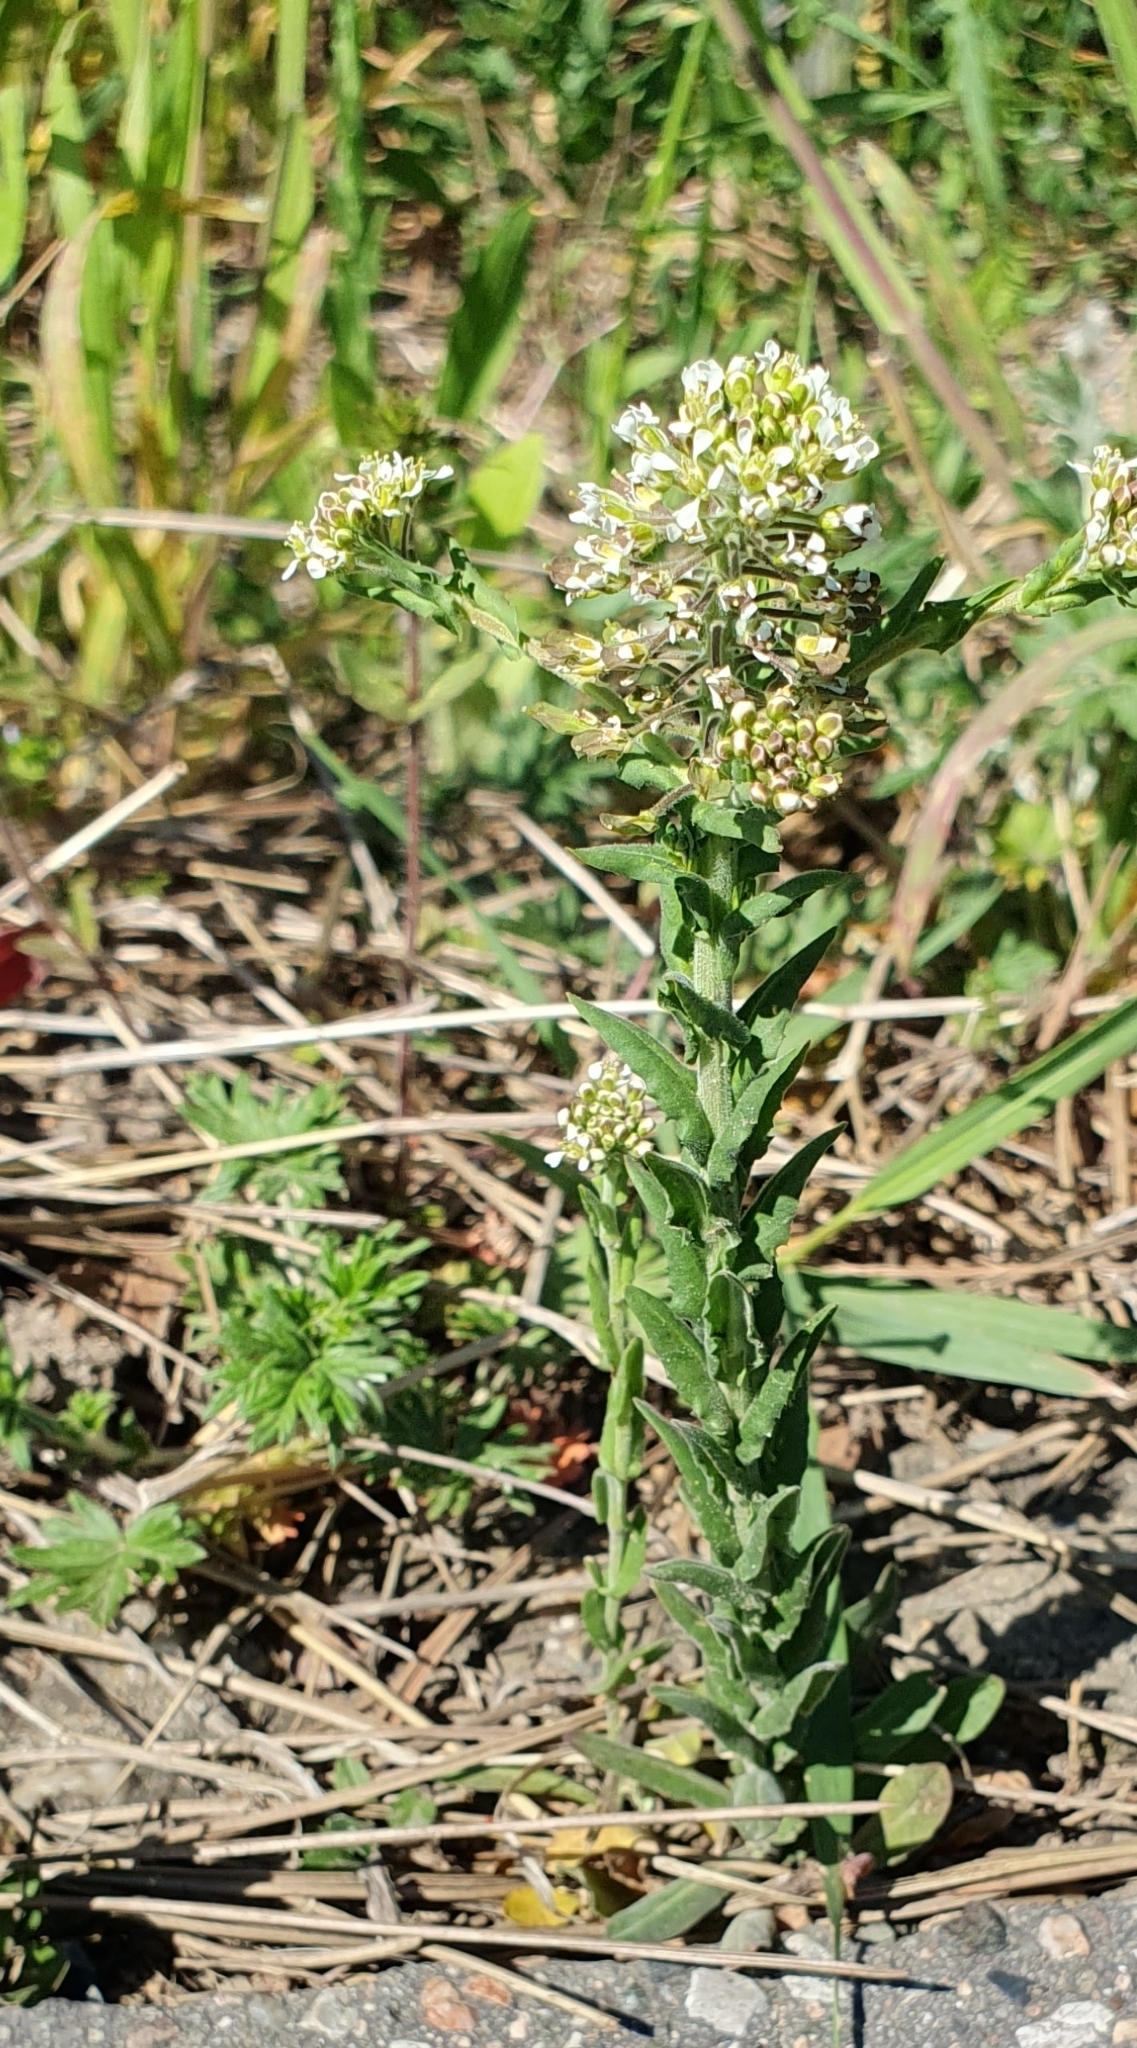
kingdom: Plantae
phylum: Tracheophyta
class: Magnoliopsida
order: Brassicales
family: Brassicaceae
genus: Lepidium
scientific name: Lepidium campestre
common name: Field pepperwort
